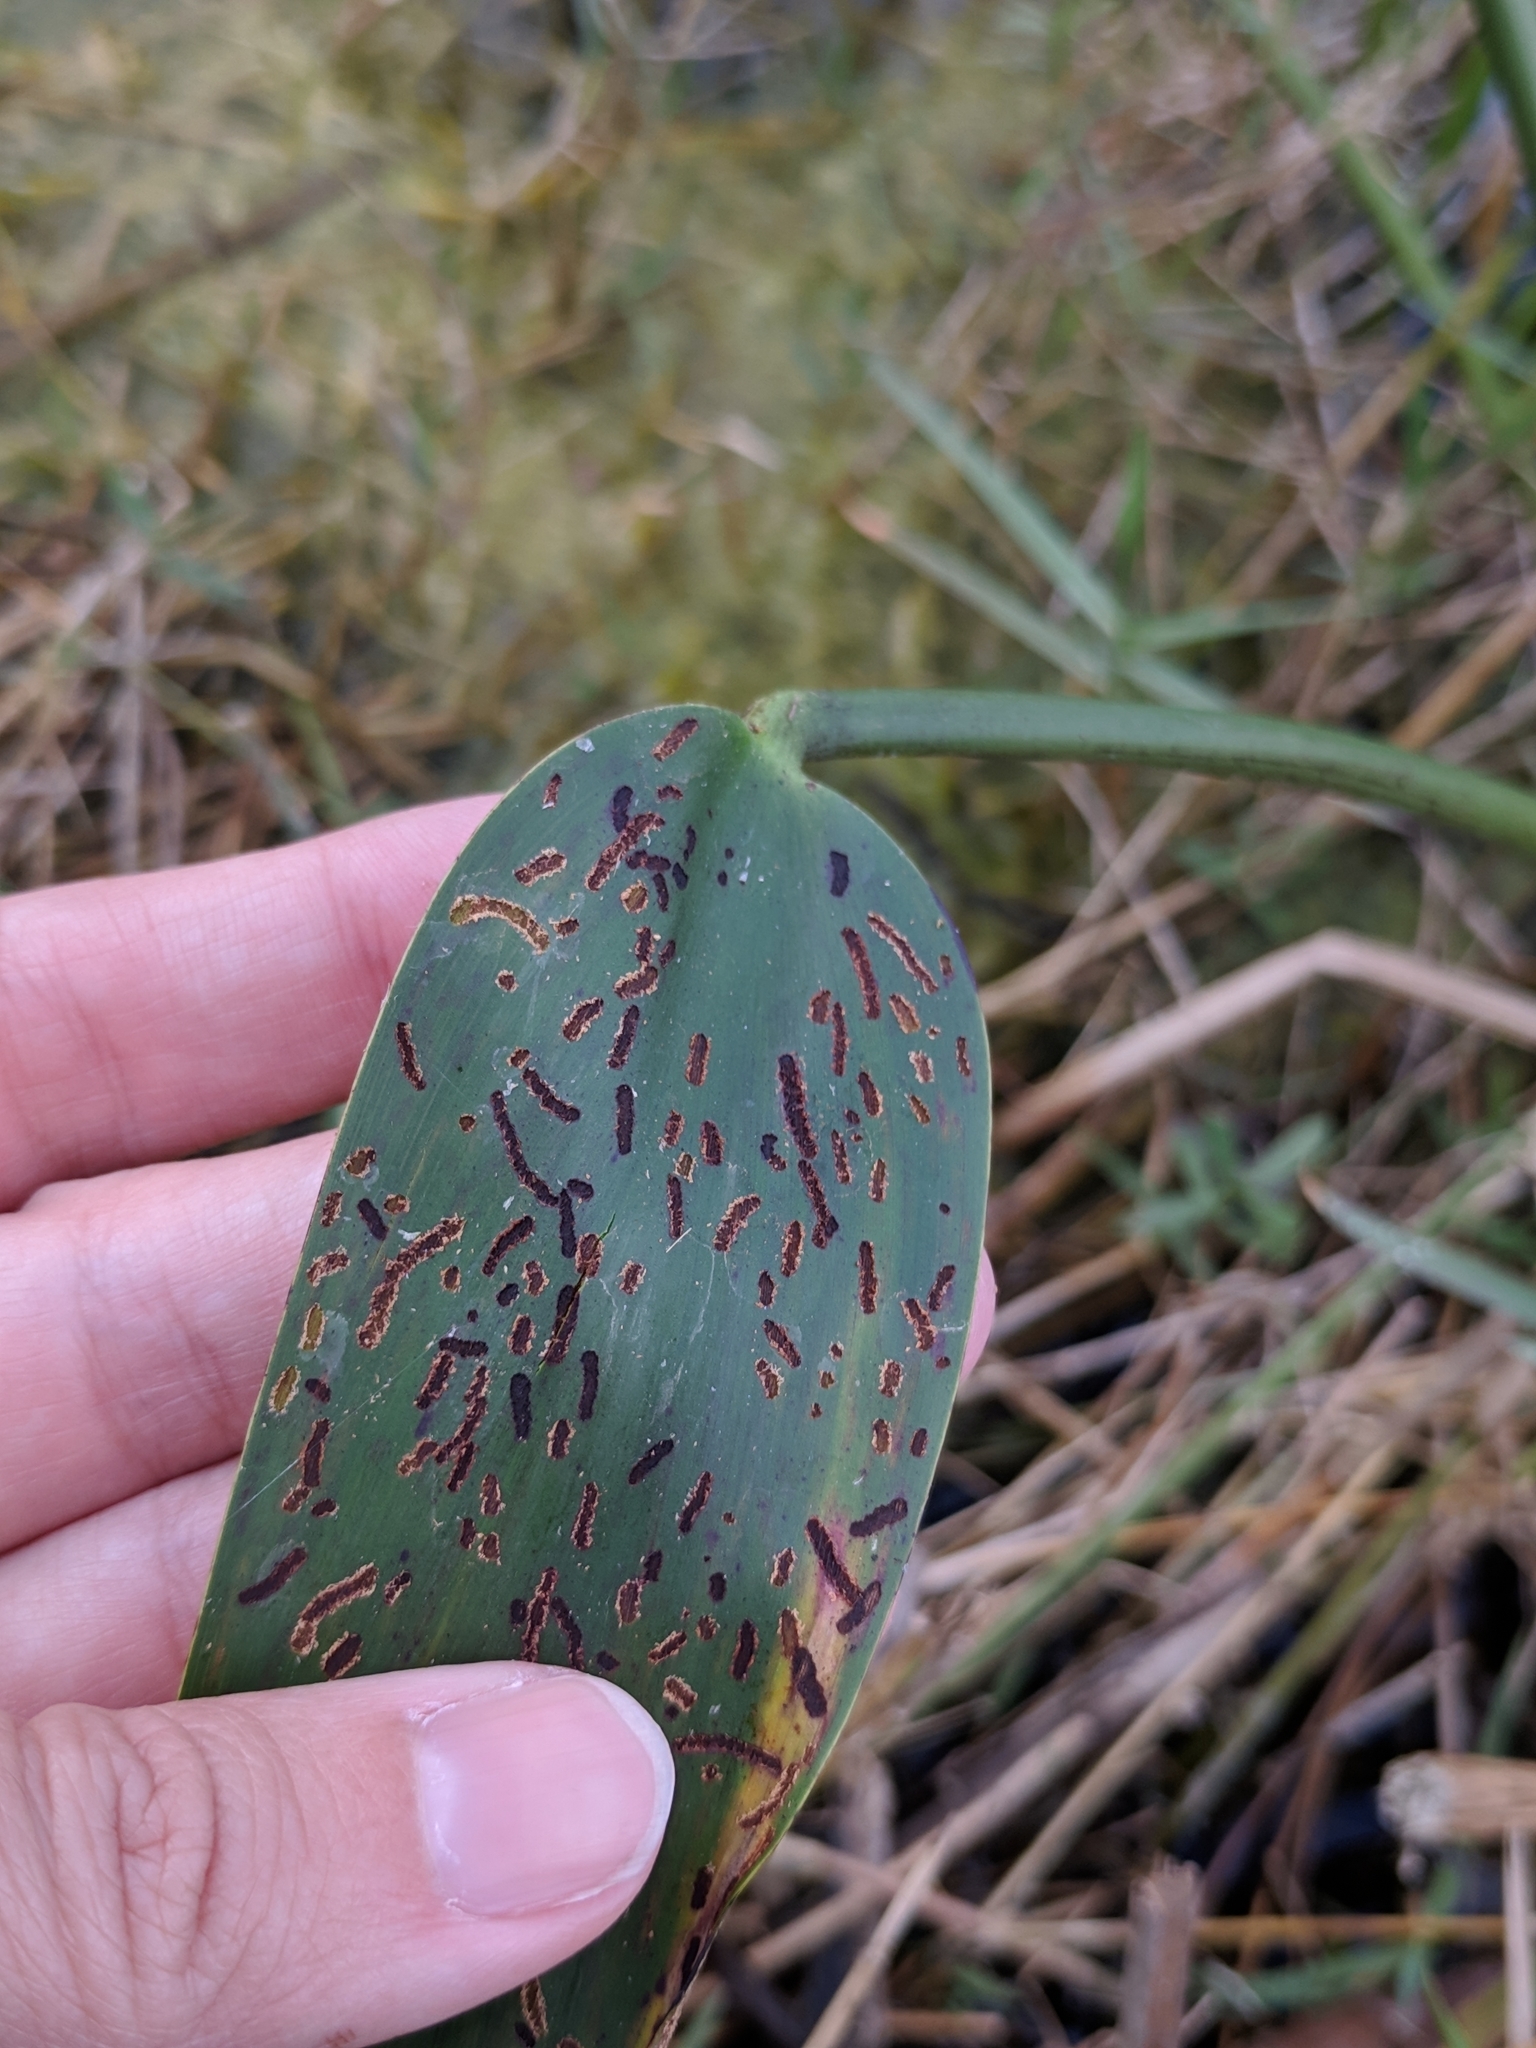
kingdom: Plantae
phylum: Tracheophyta
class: Liliopsida
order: Commelinales
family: Pontederiaceae
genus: Pontederia
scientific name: Pontederia cordata
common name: Pickerelweed
